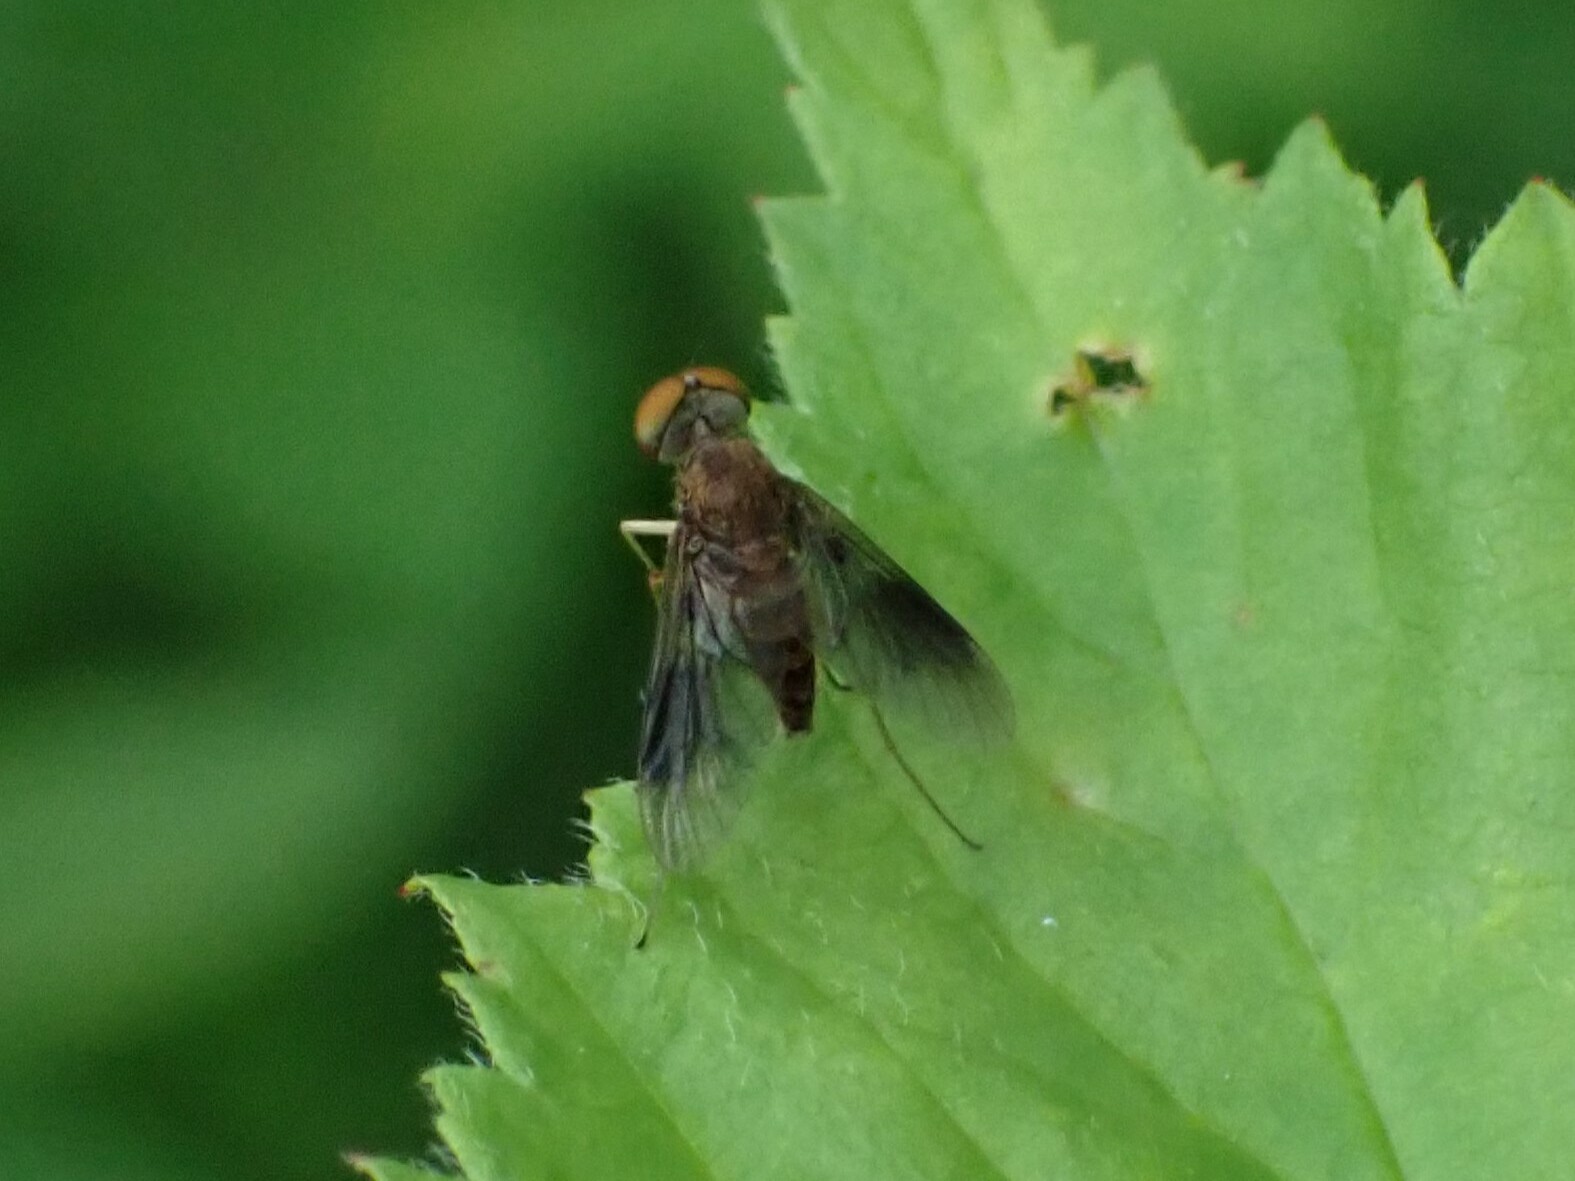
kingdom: Animalia
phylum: Arthropoda
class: Insecta
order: Diptera
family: Rhagionidae
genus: Chrysopilus
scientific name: Chrysopilus quadratus
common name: Quadrate snipe fly
